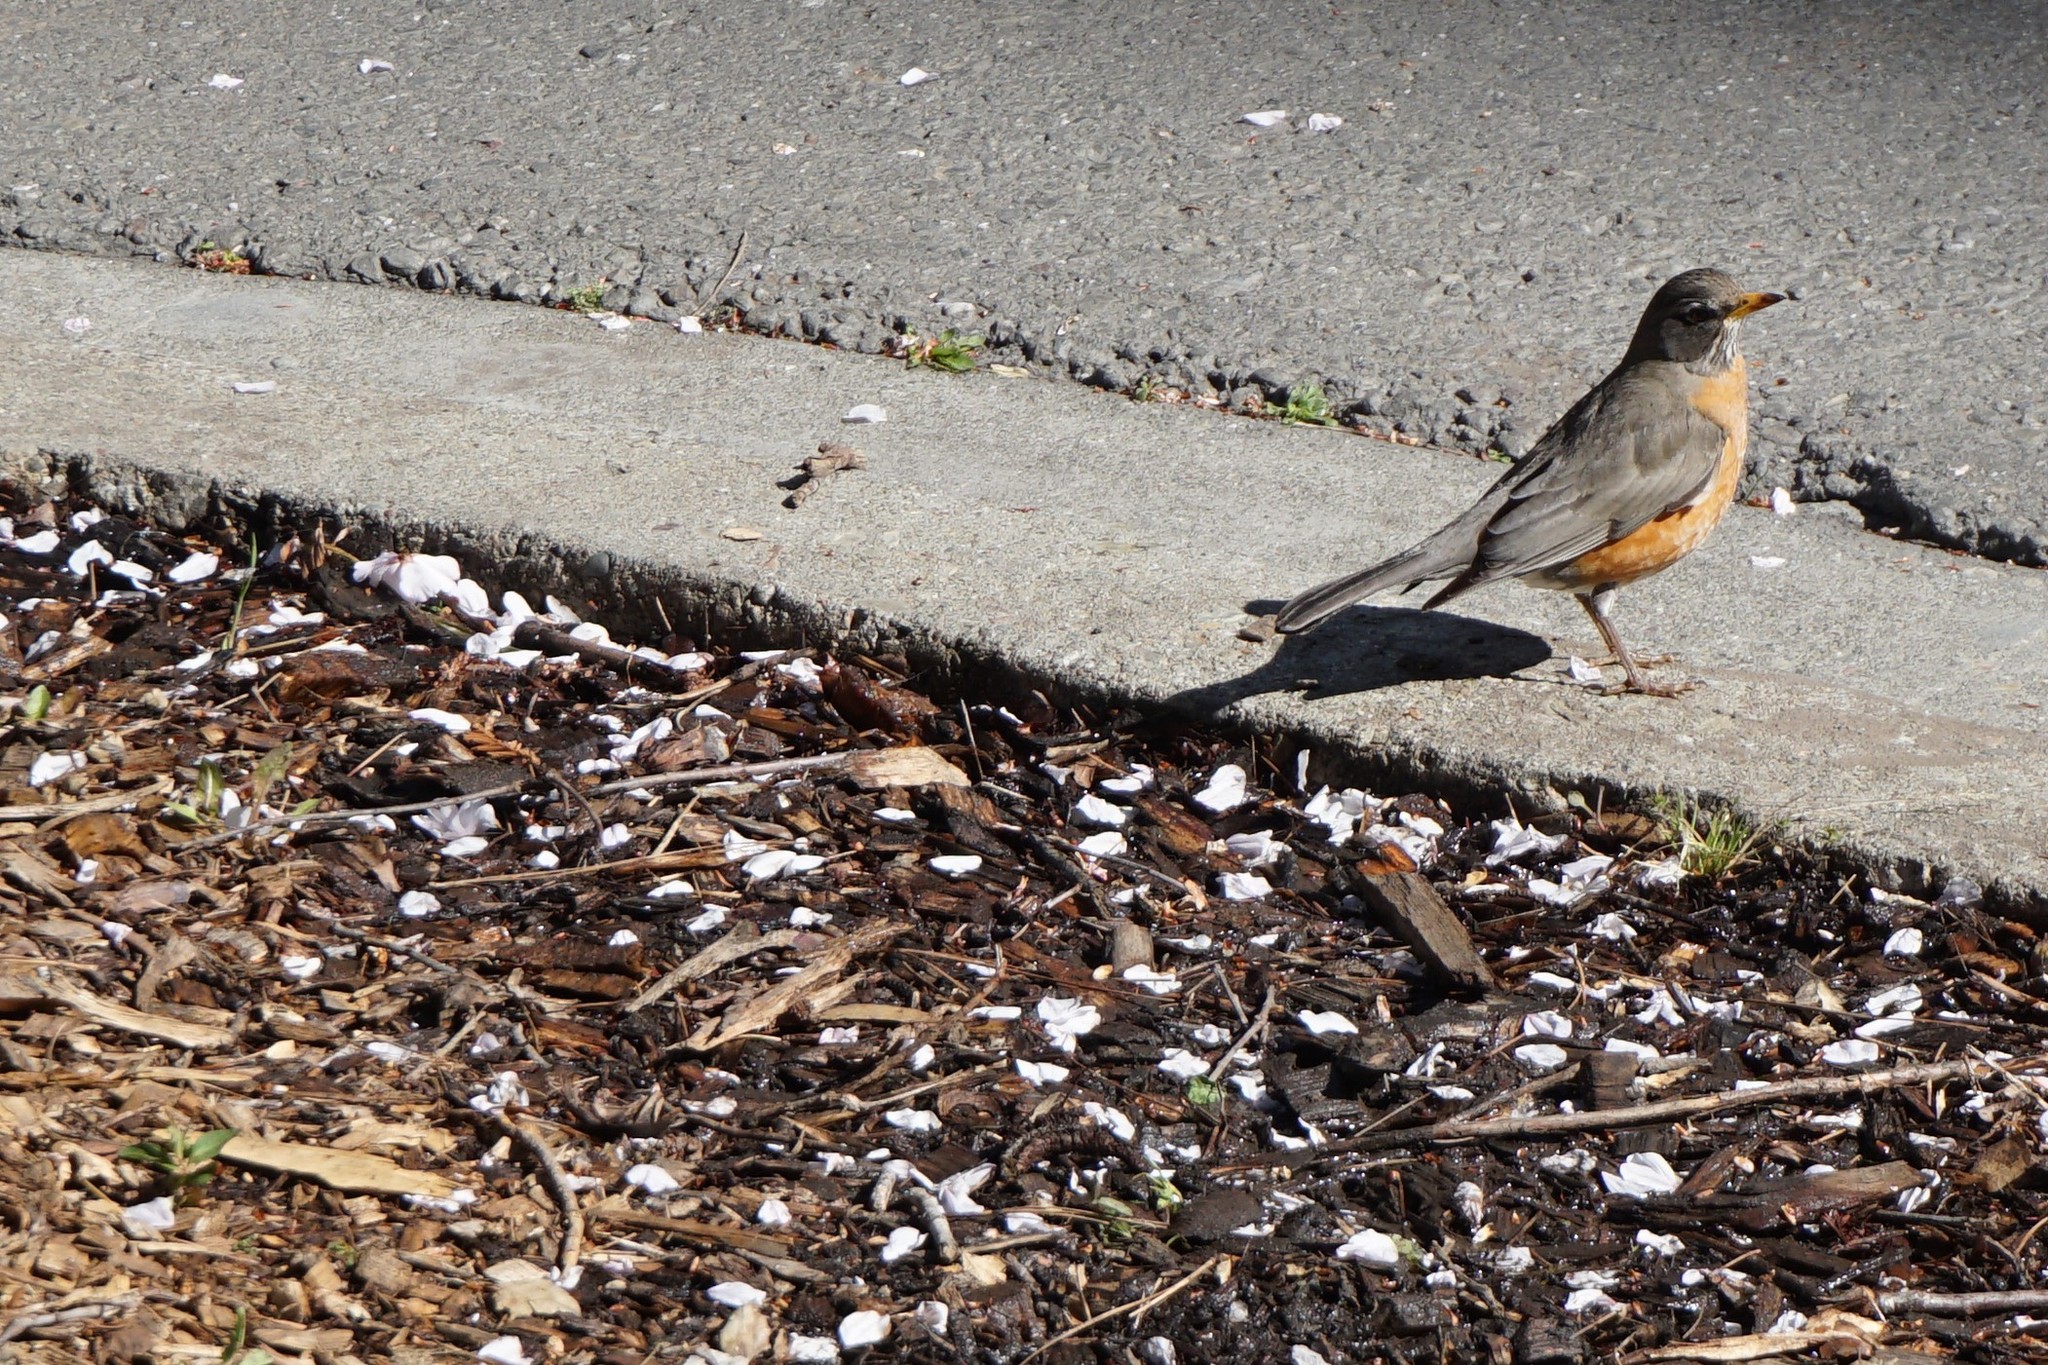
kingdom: Animalia
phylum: Chordata
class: Aves
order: Passeriformes
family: Turdidae
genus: Turdus
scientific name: Turdus migratorius
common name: American robin
